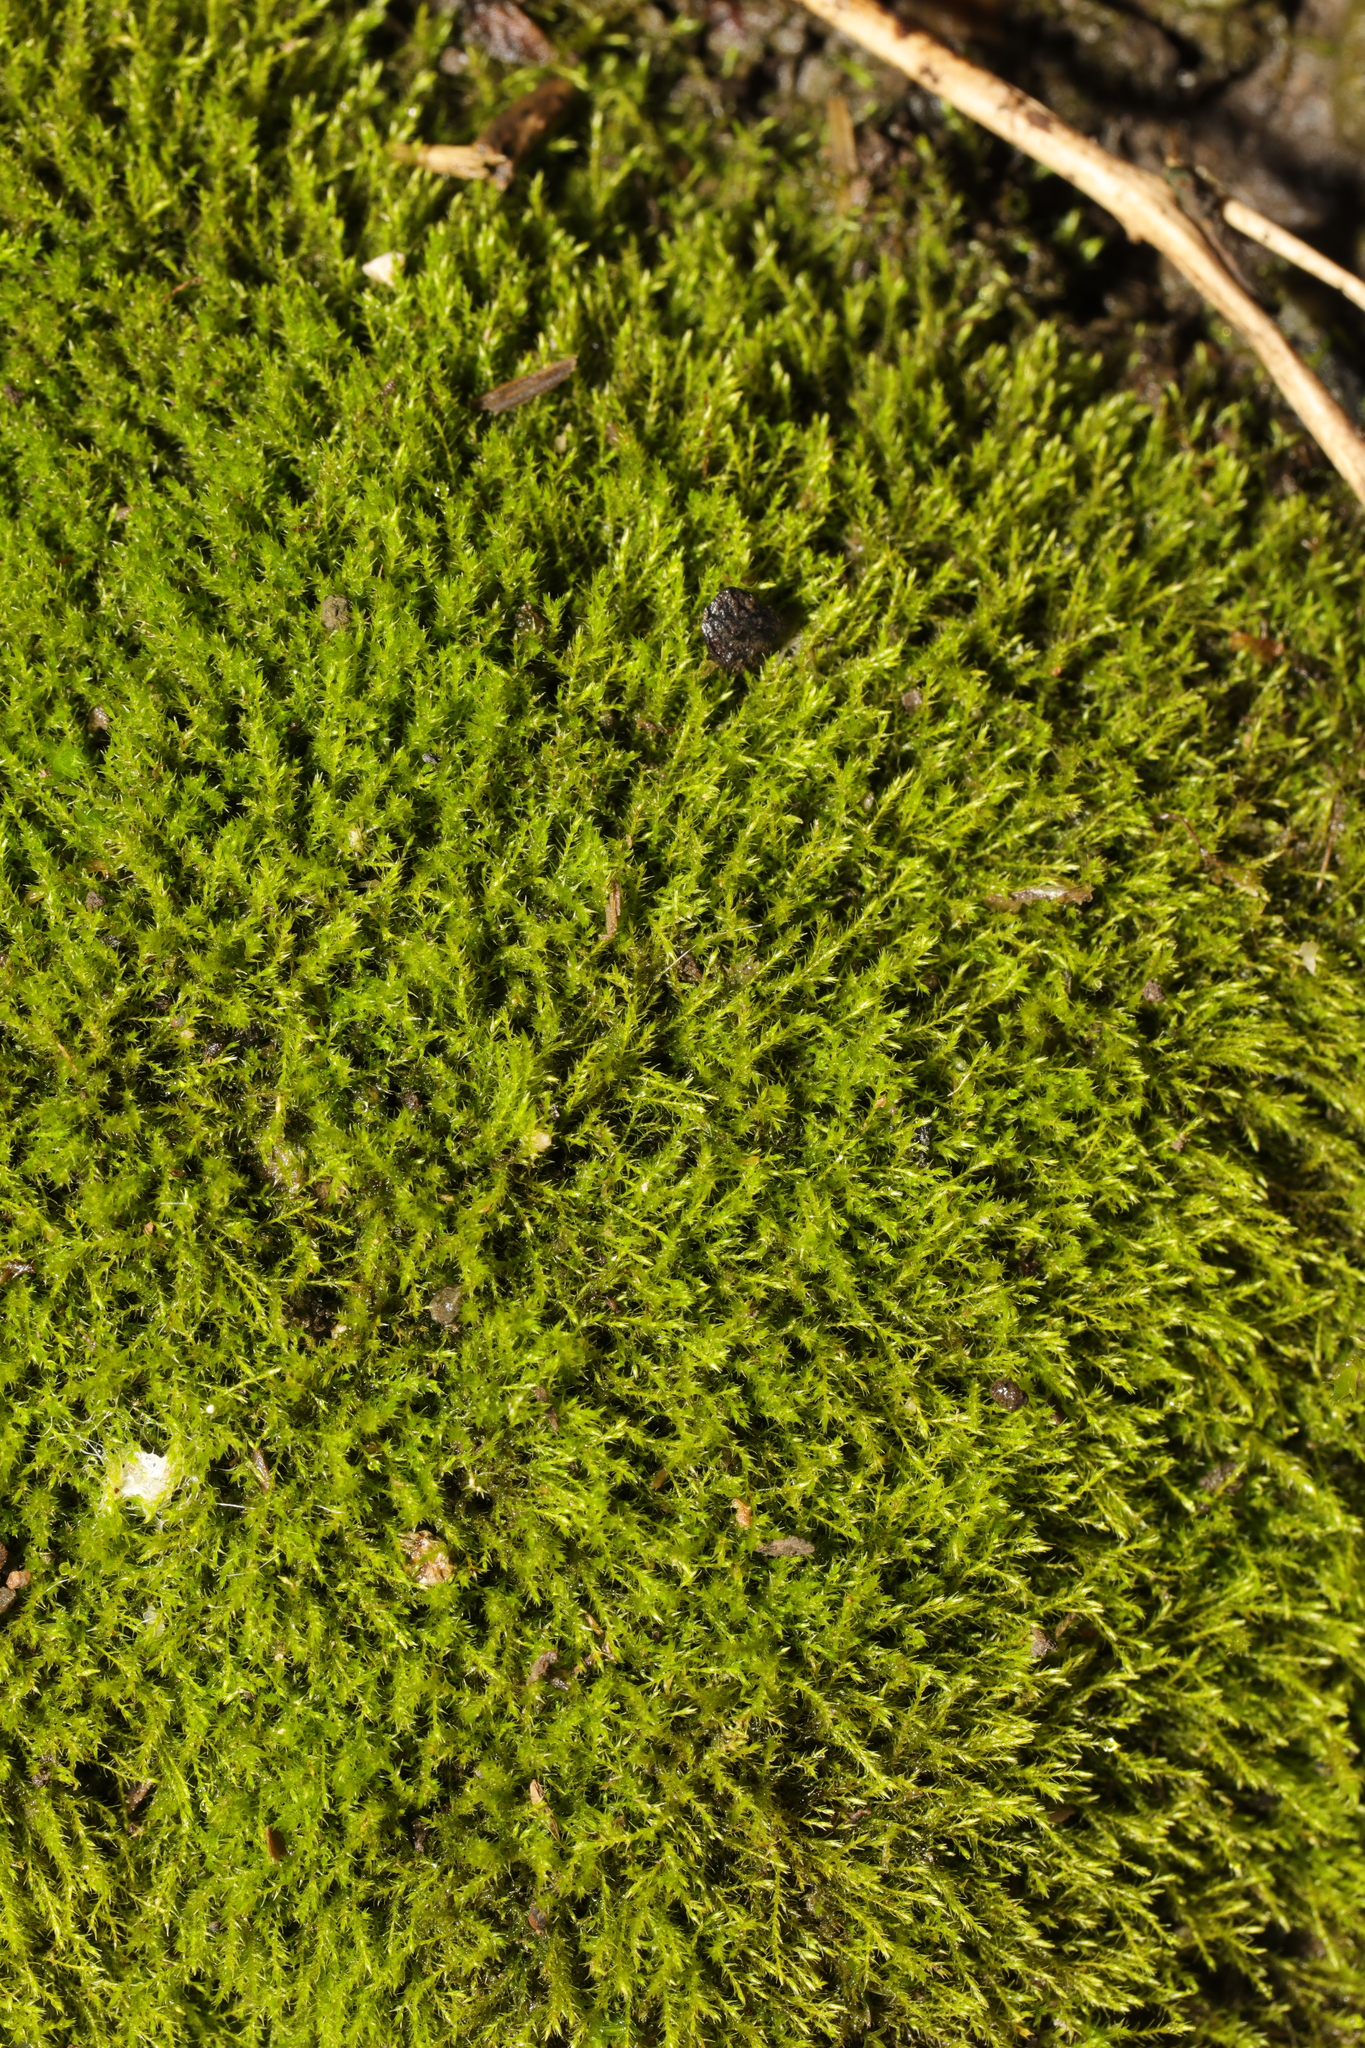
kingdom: Plantae
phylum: Bryophyta
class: Bryopsida
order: Hypnales
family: Amblystegiaceae
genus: Amblystegium
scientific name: Amblystegium serpens
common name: Jurkatzka's feather moss
